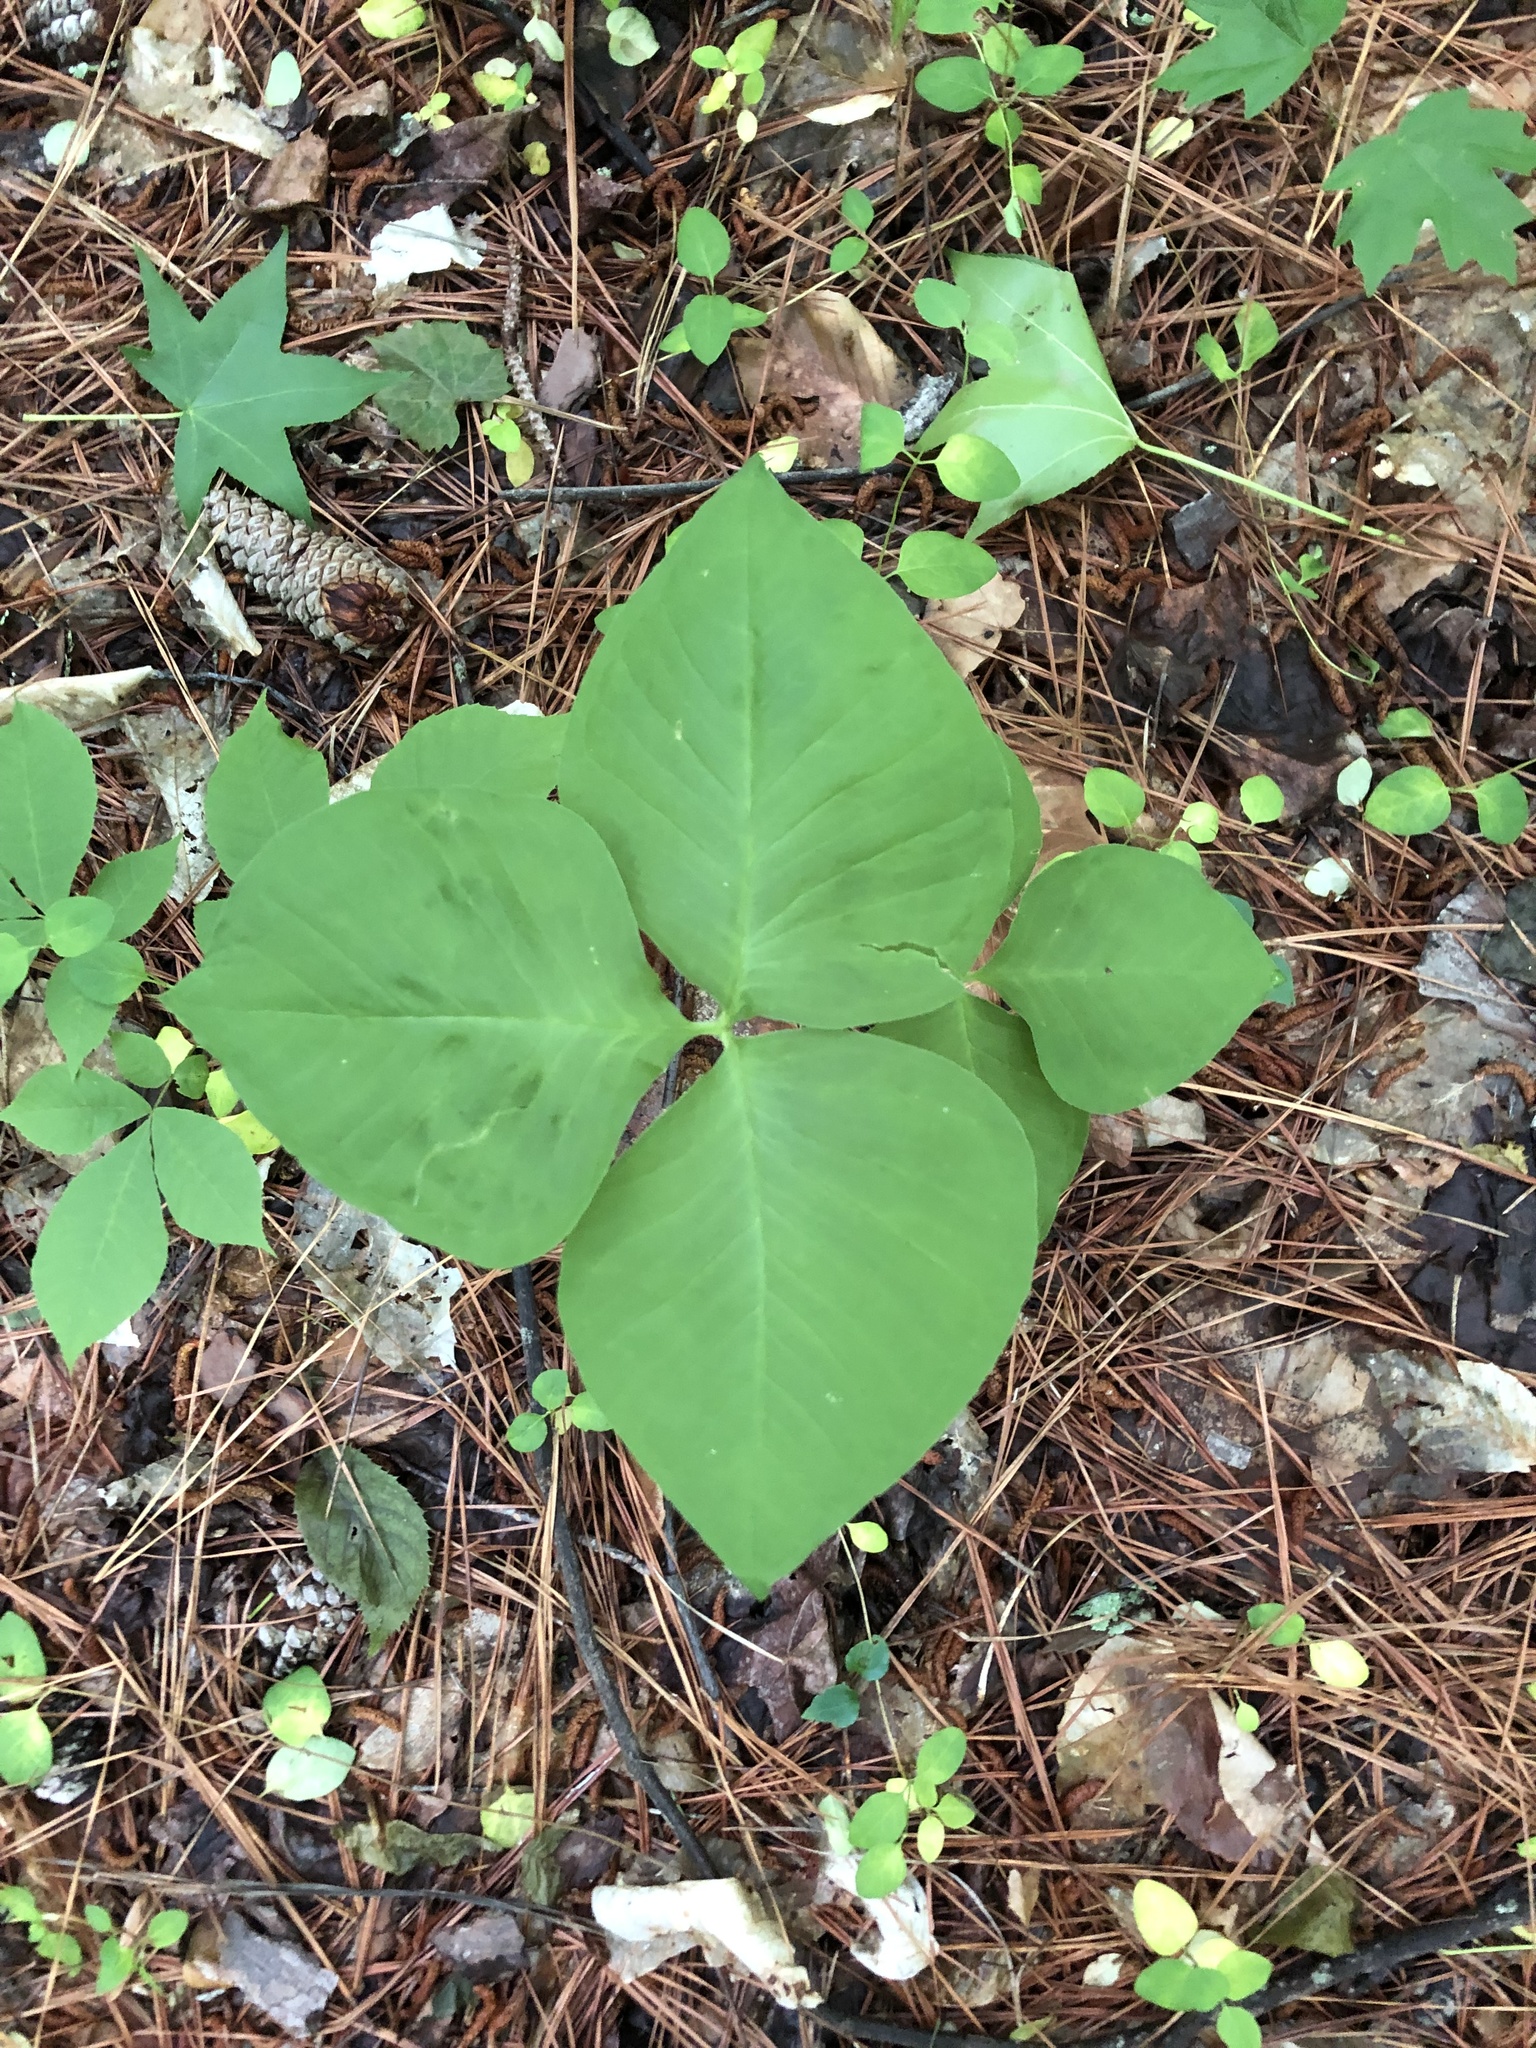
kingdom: Plantae
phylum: Tracheophyta
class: Liliopsida
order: Alismatales
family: Araceae
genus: Arisaema
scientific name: Arisaema triphyllum
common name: Jack-in-the-pulpit
